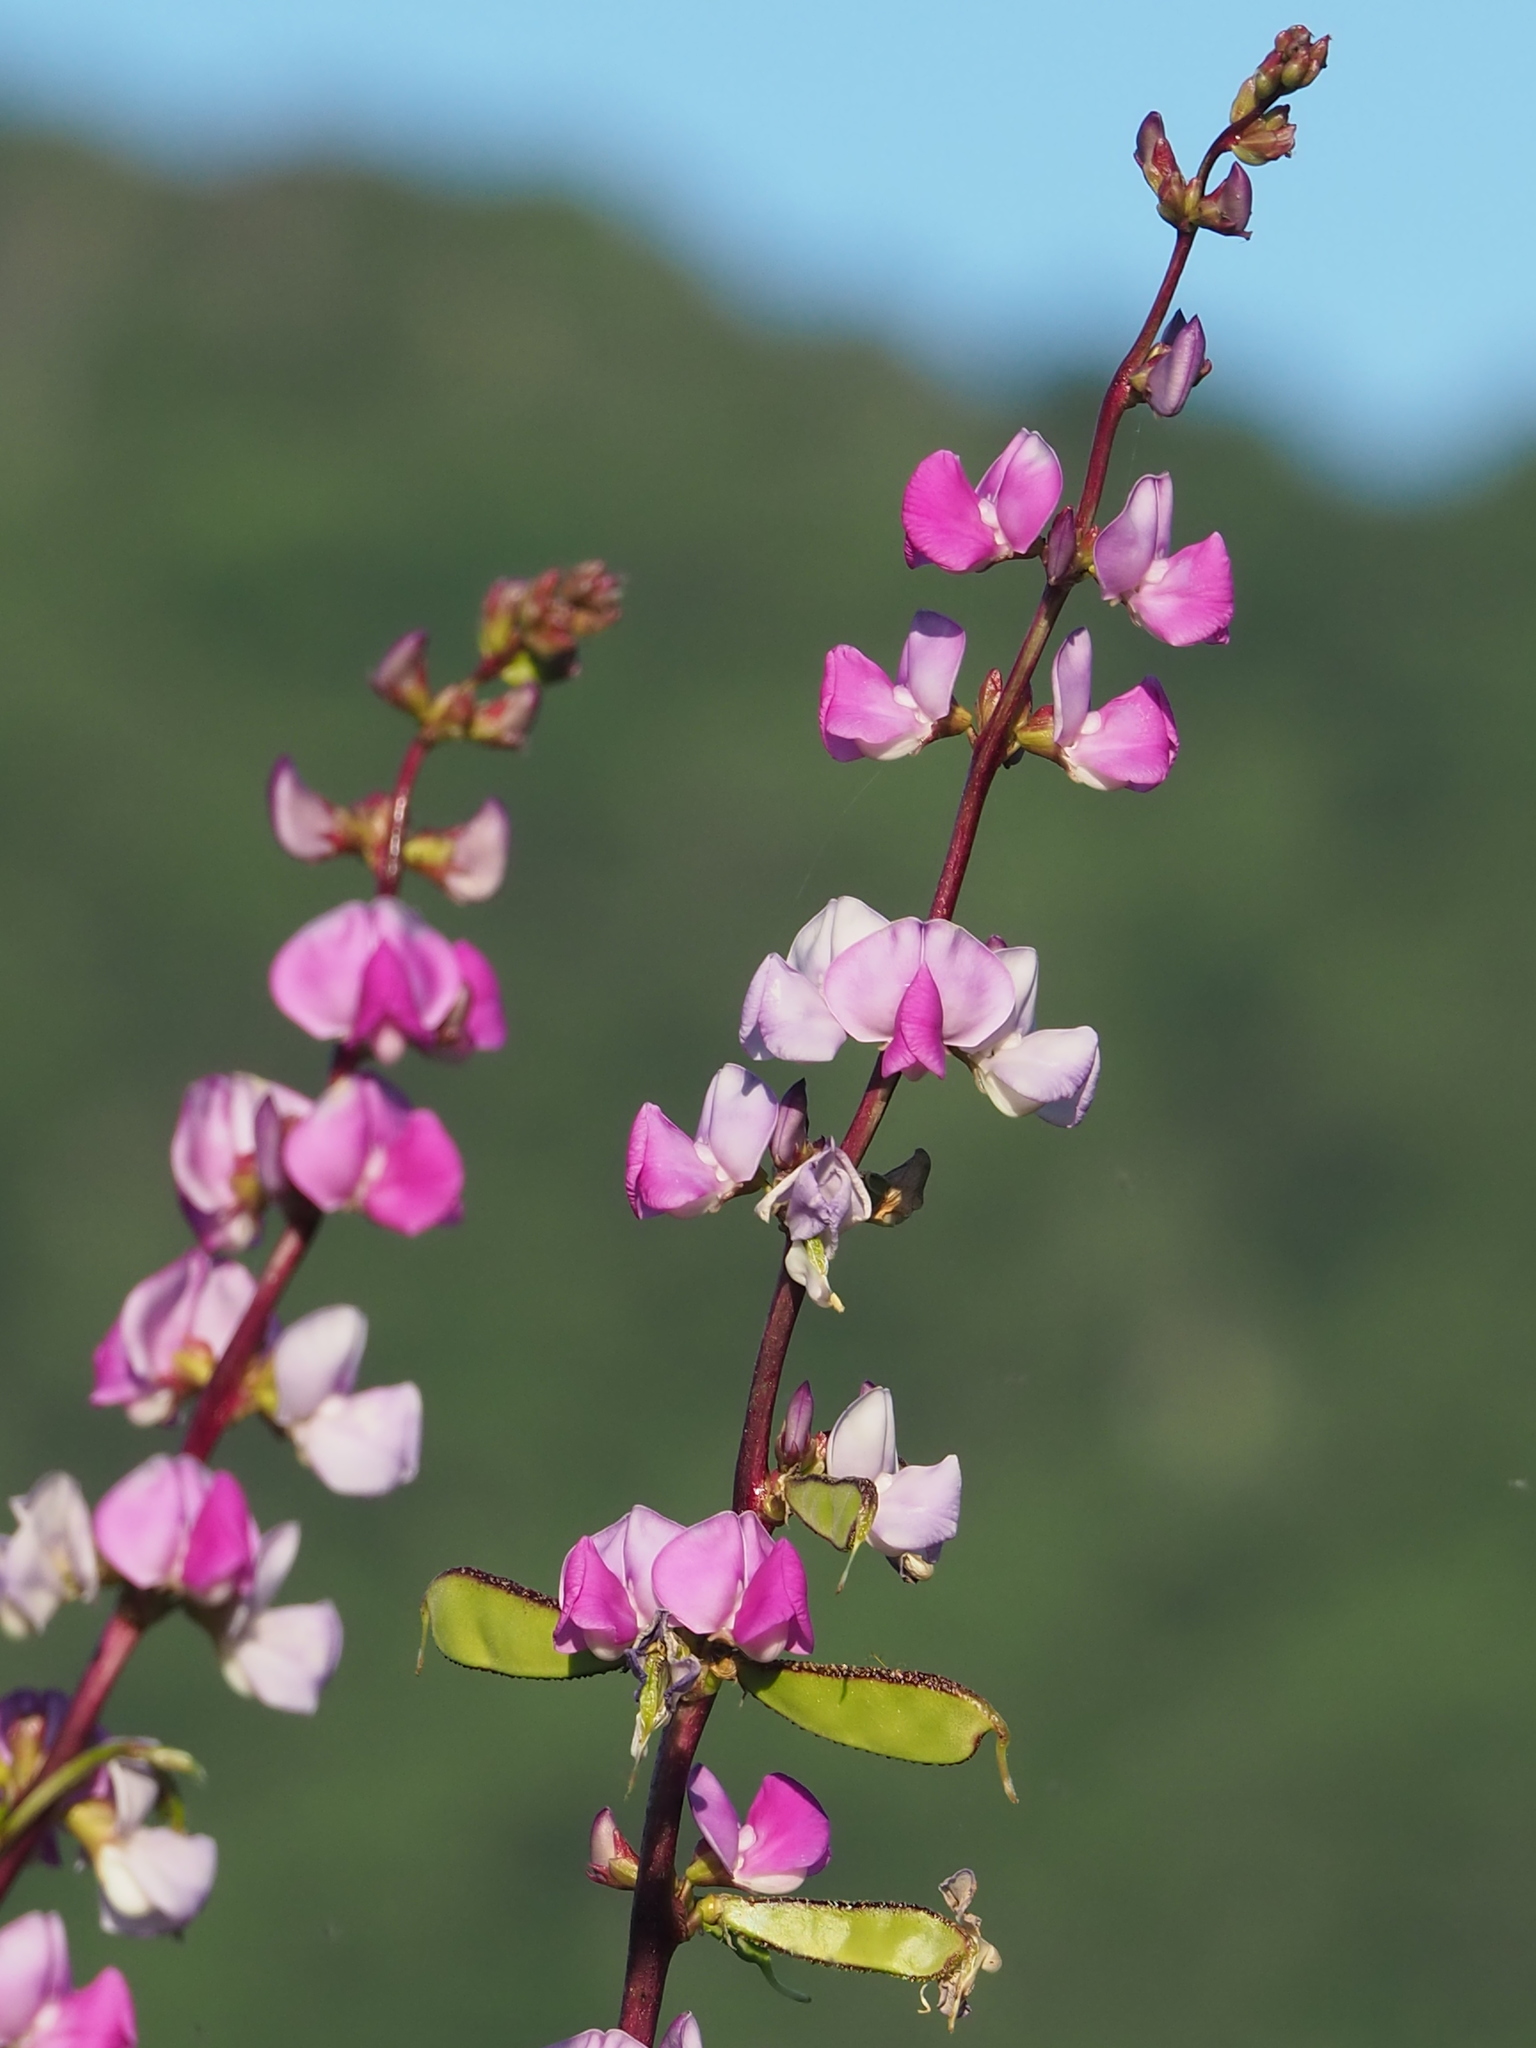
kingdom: Plantae
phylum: Tracheophyta
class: Magnoliopsida
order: Fabales
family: Fabaceae
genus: Lablab
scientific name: Lablab purpureus
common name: Lablab-bean
